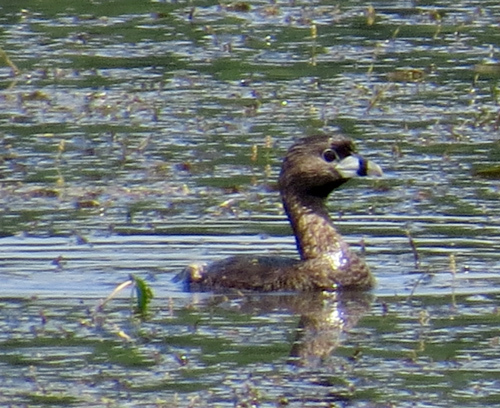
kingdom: Animalia
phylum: Chordata
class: Aves
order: Podicipediformes
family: Podicipedidae
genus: Podilymbus
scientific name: Podilymbus podiceps
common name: Pied-billed grebe
